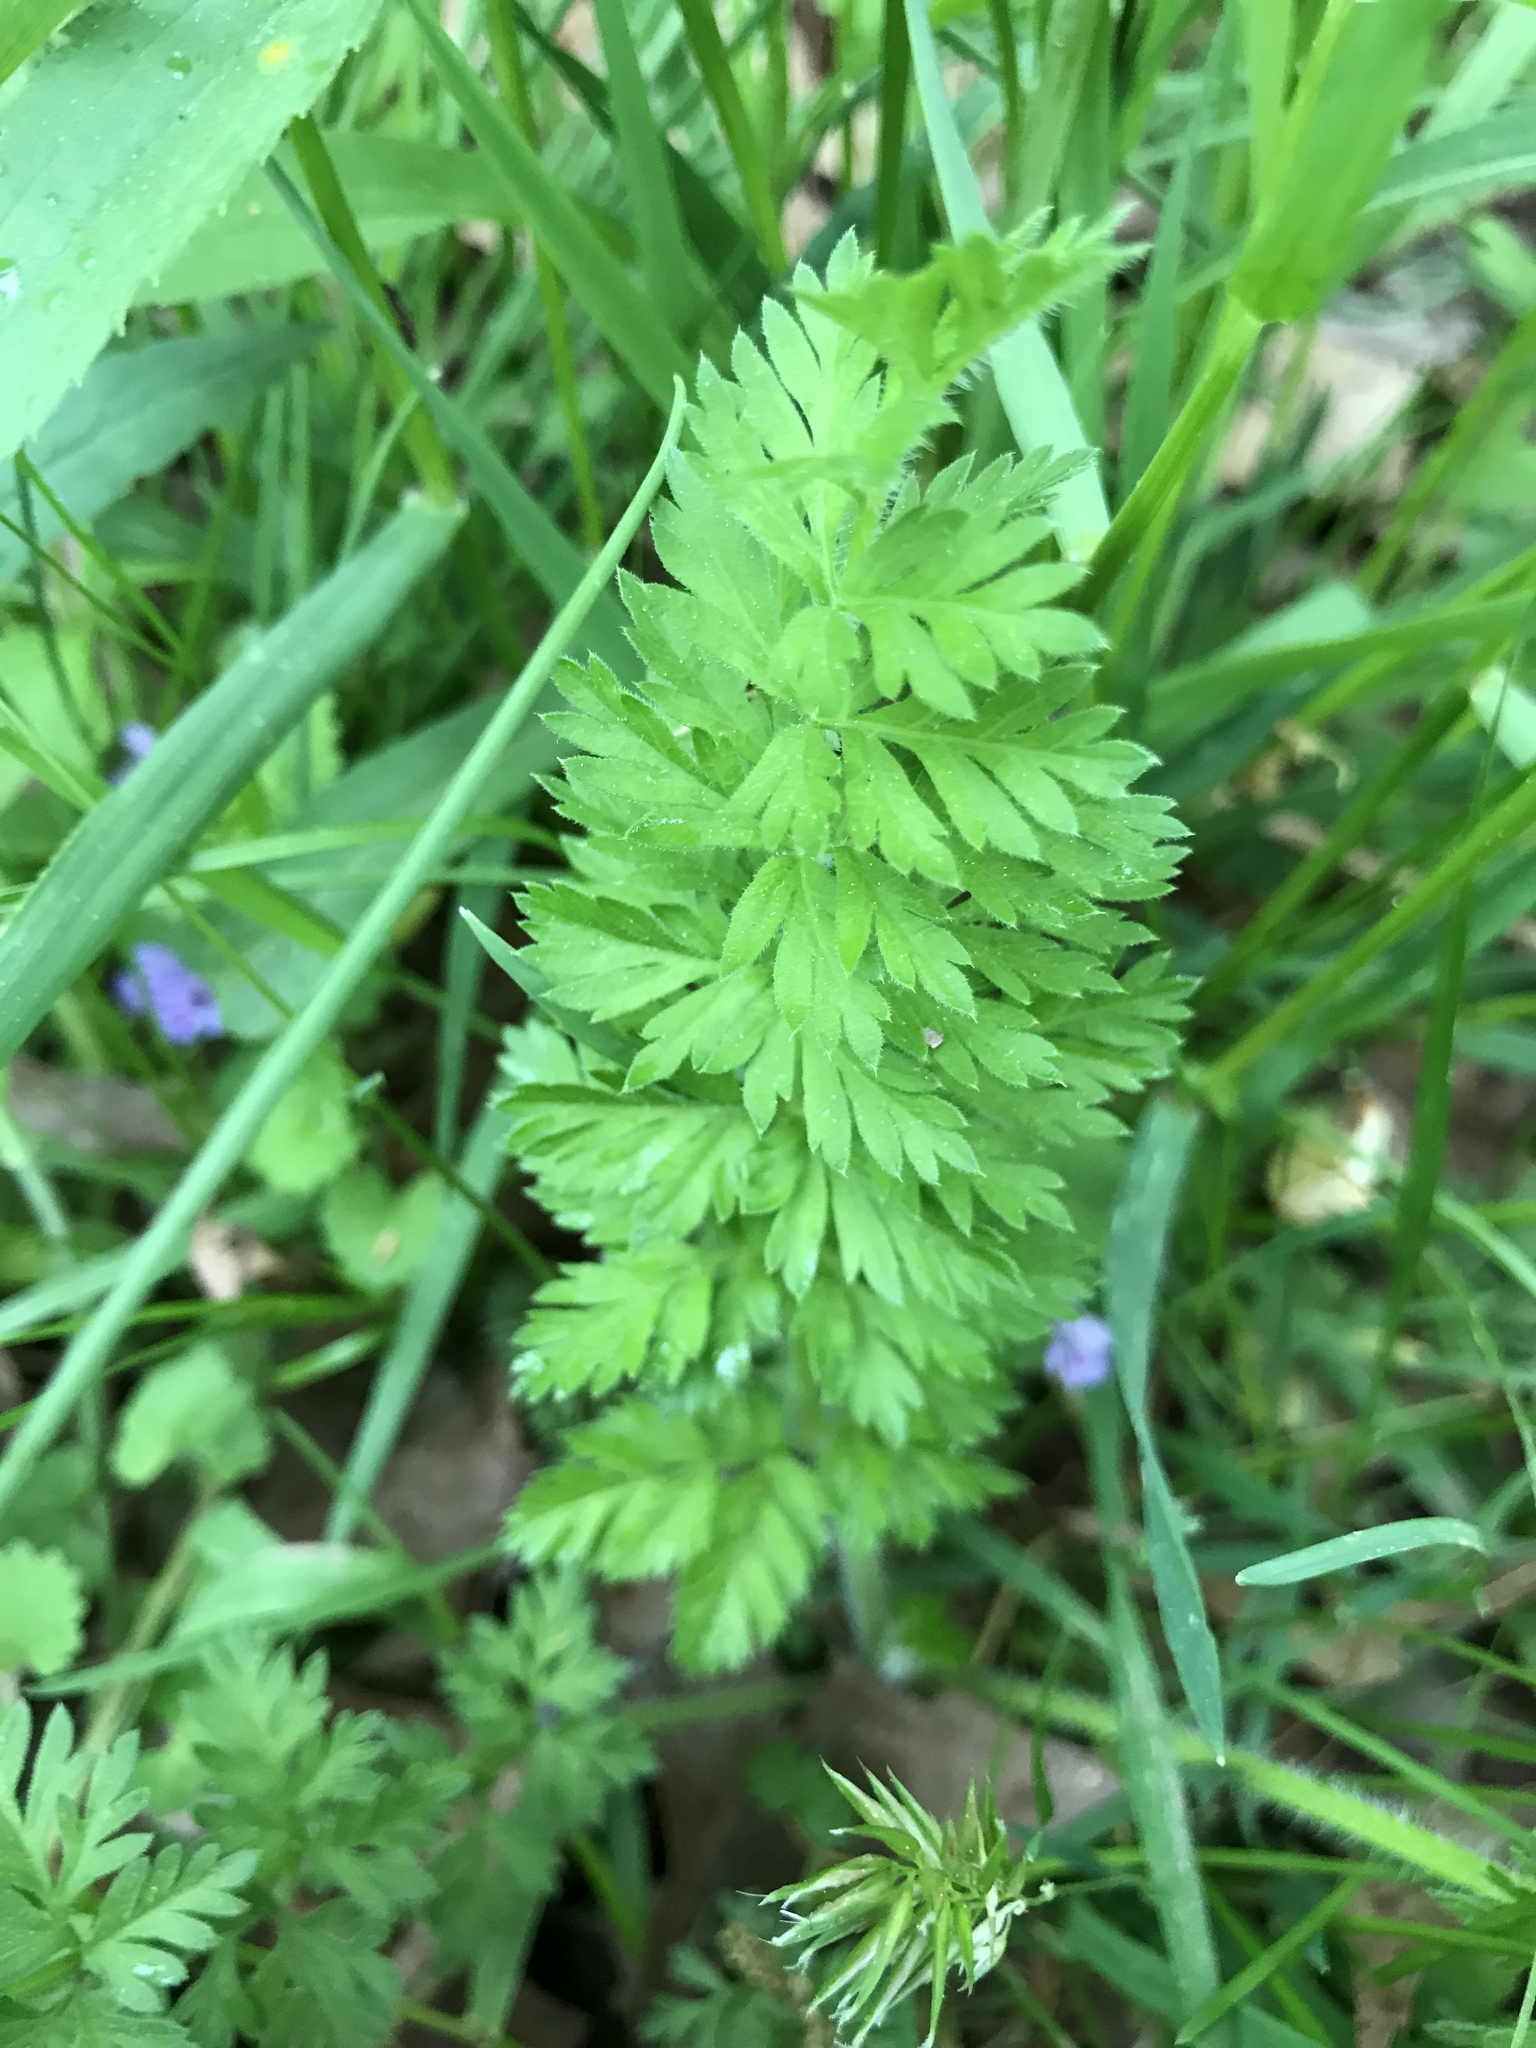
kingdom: Plantae
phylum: Tracheophyta
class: Magnoliopsida
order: Apiales
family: Apiaceae
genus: Daucus
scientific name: Daucus carota
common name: Wild carrot
